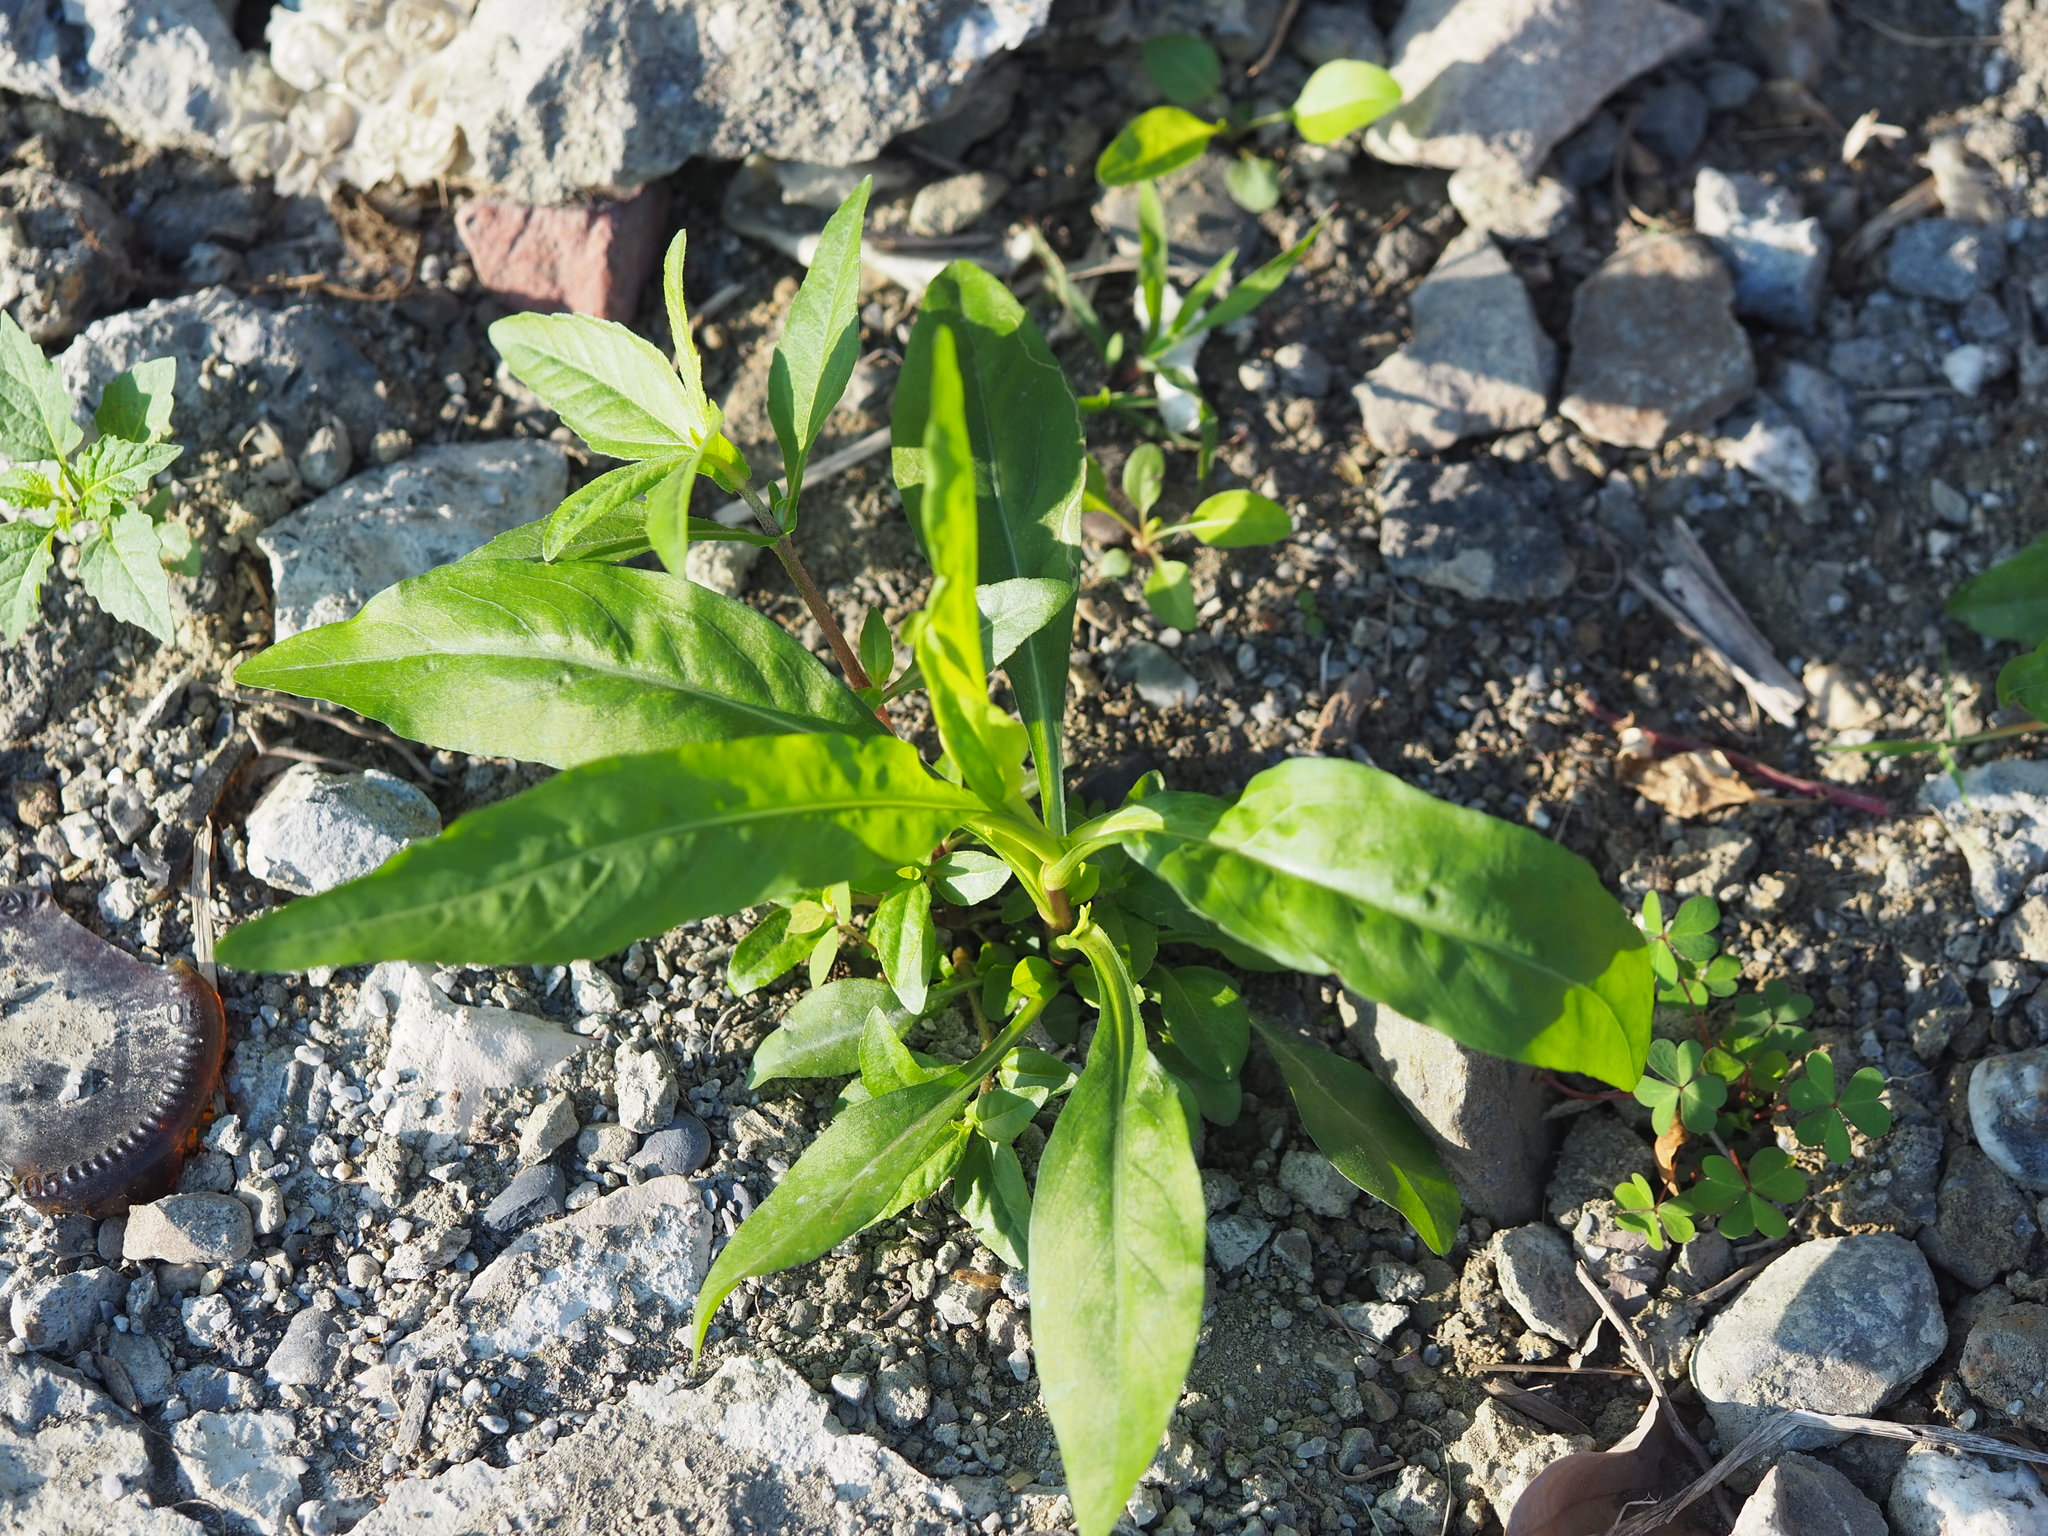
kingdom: Plantae
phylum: Tracheophyta
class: Magnoliopsida
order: Asterales
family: Asteraceae
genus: Symphyotrichum
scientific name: Symphyotrichum subulatum
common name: Annual saltmarsh aster
